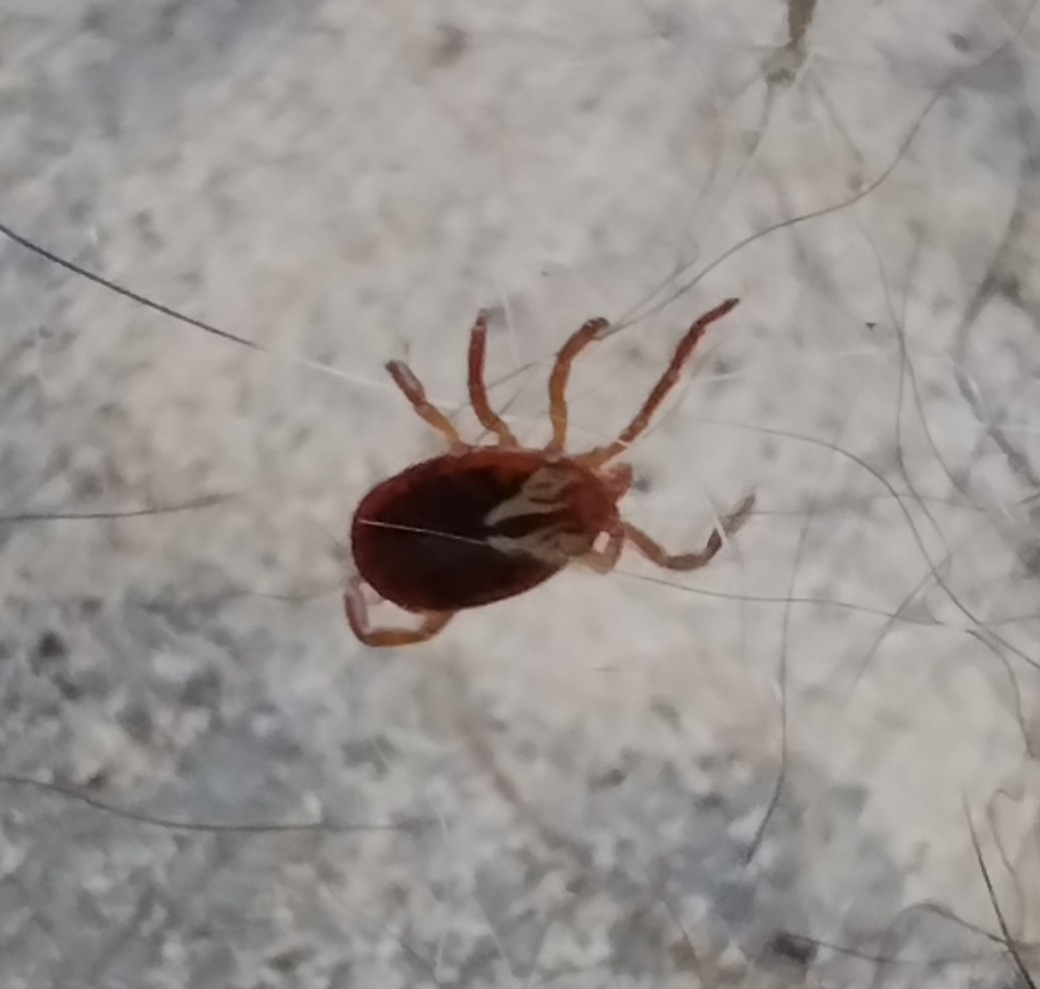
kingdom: Animalia
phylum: Arthropoda
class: Arachnida
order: Ixodida
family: Ixodidae
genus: Amblyomma
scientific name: Amblyomma maculatum
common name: Gulf coast tick
